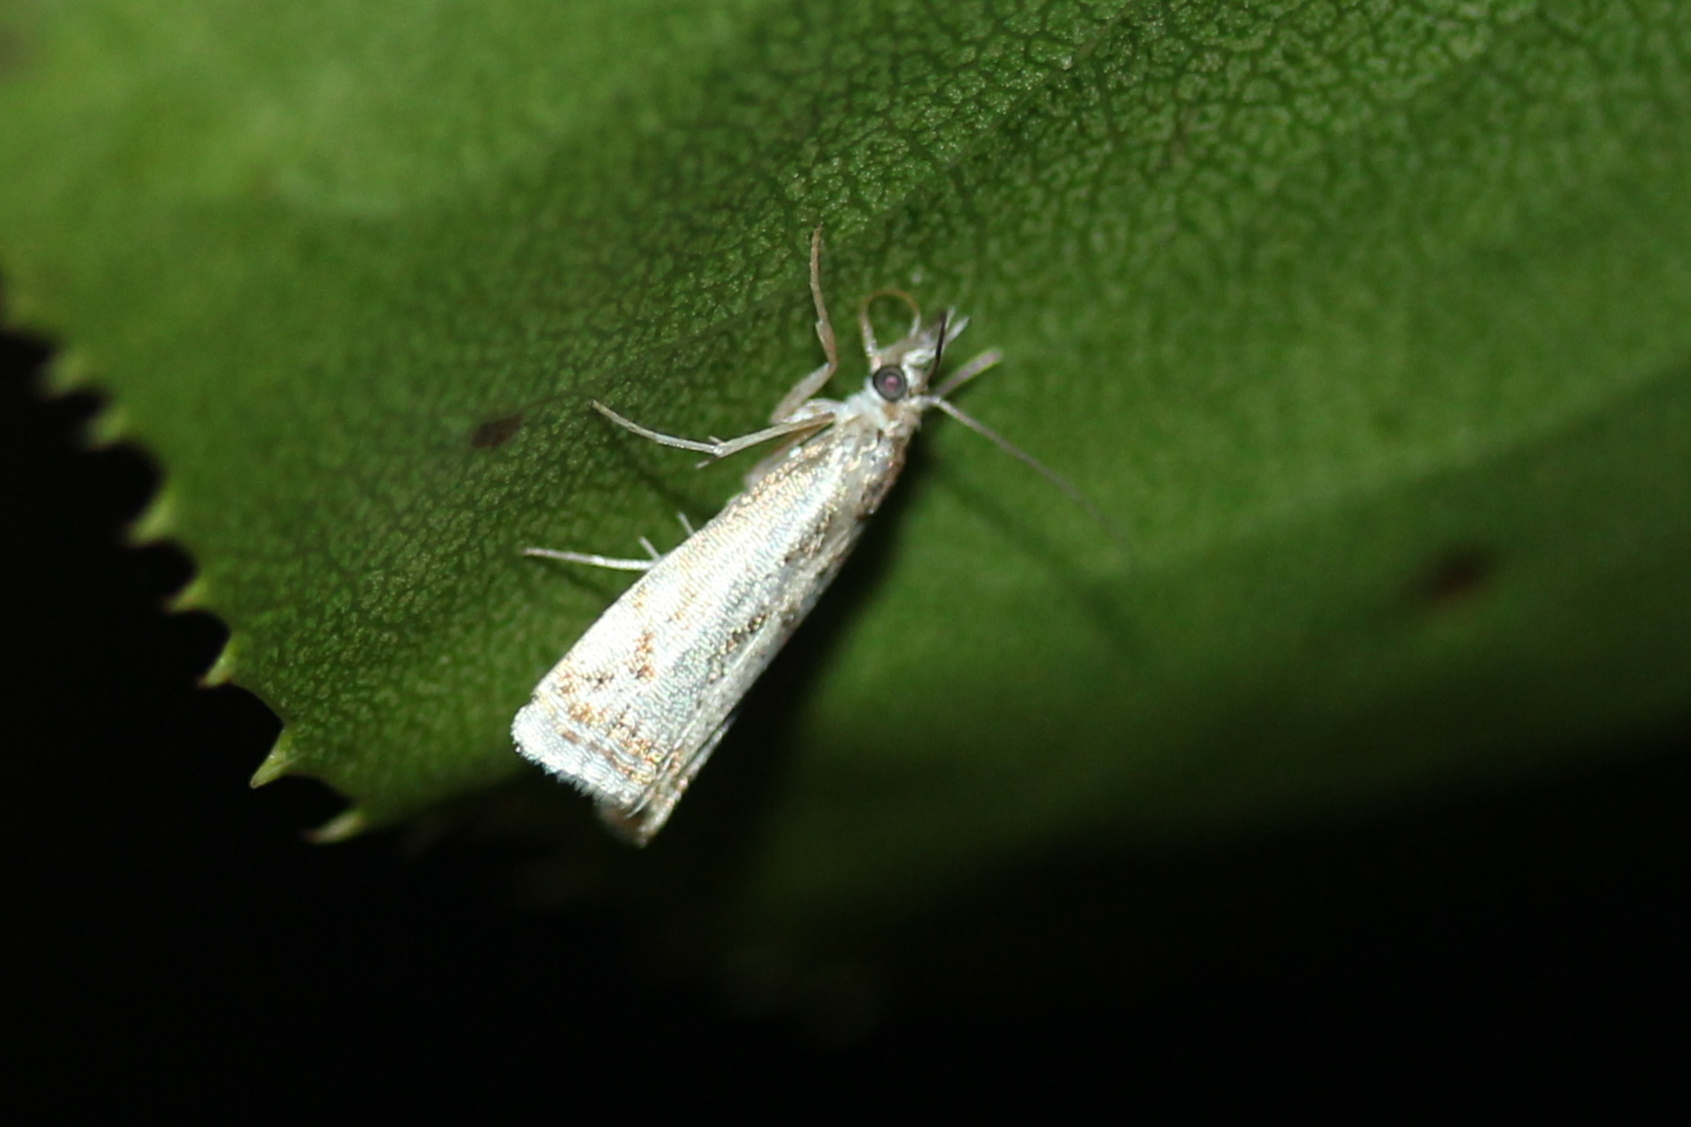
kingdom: Animalia
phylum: Arthropoda
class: Insecta
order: Lepidoptera
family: Crambidae
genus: Microcrambus
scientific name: Microcrambus elegans
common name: Elegant grass-veneer
